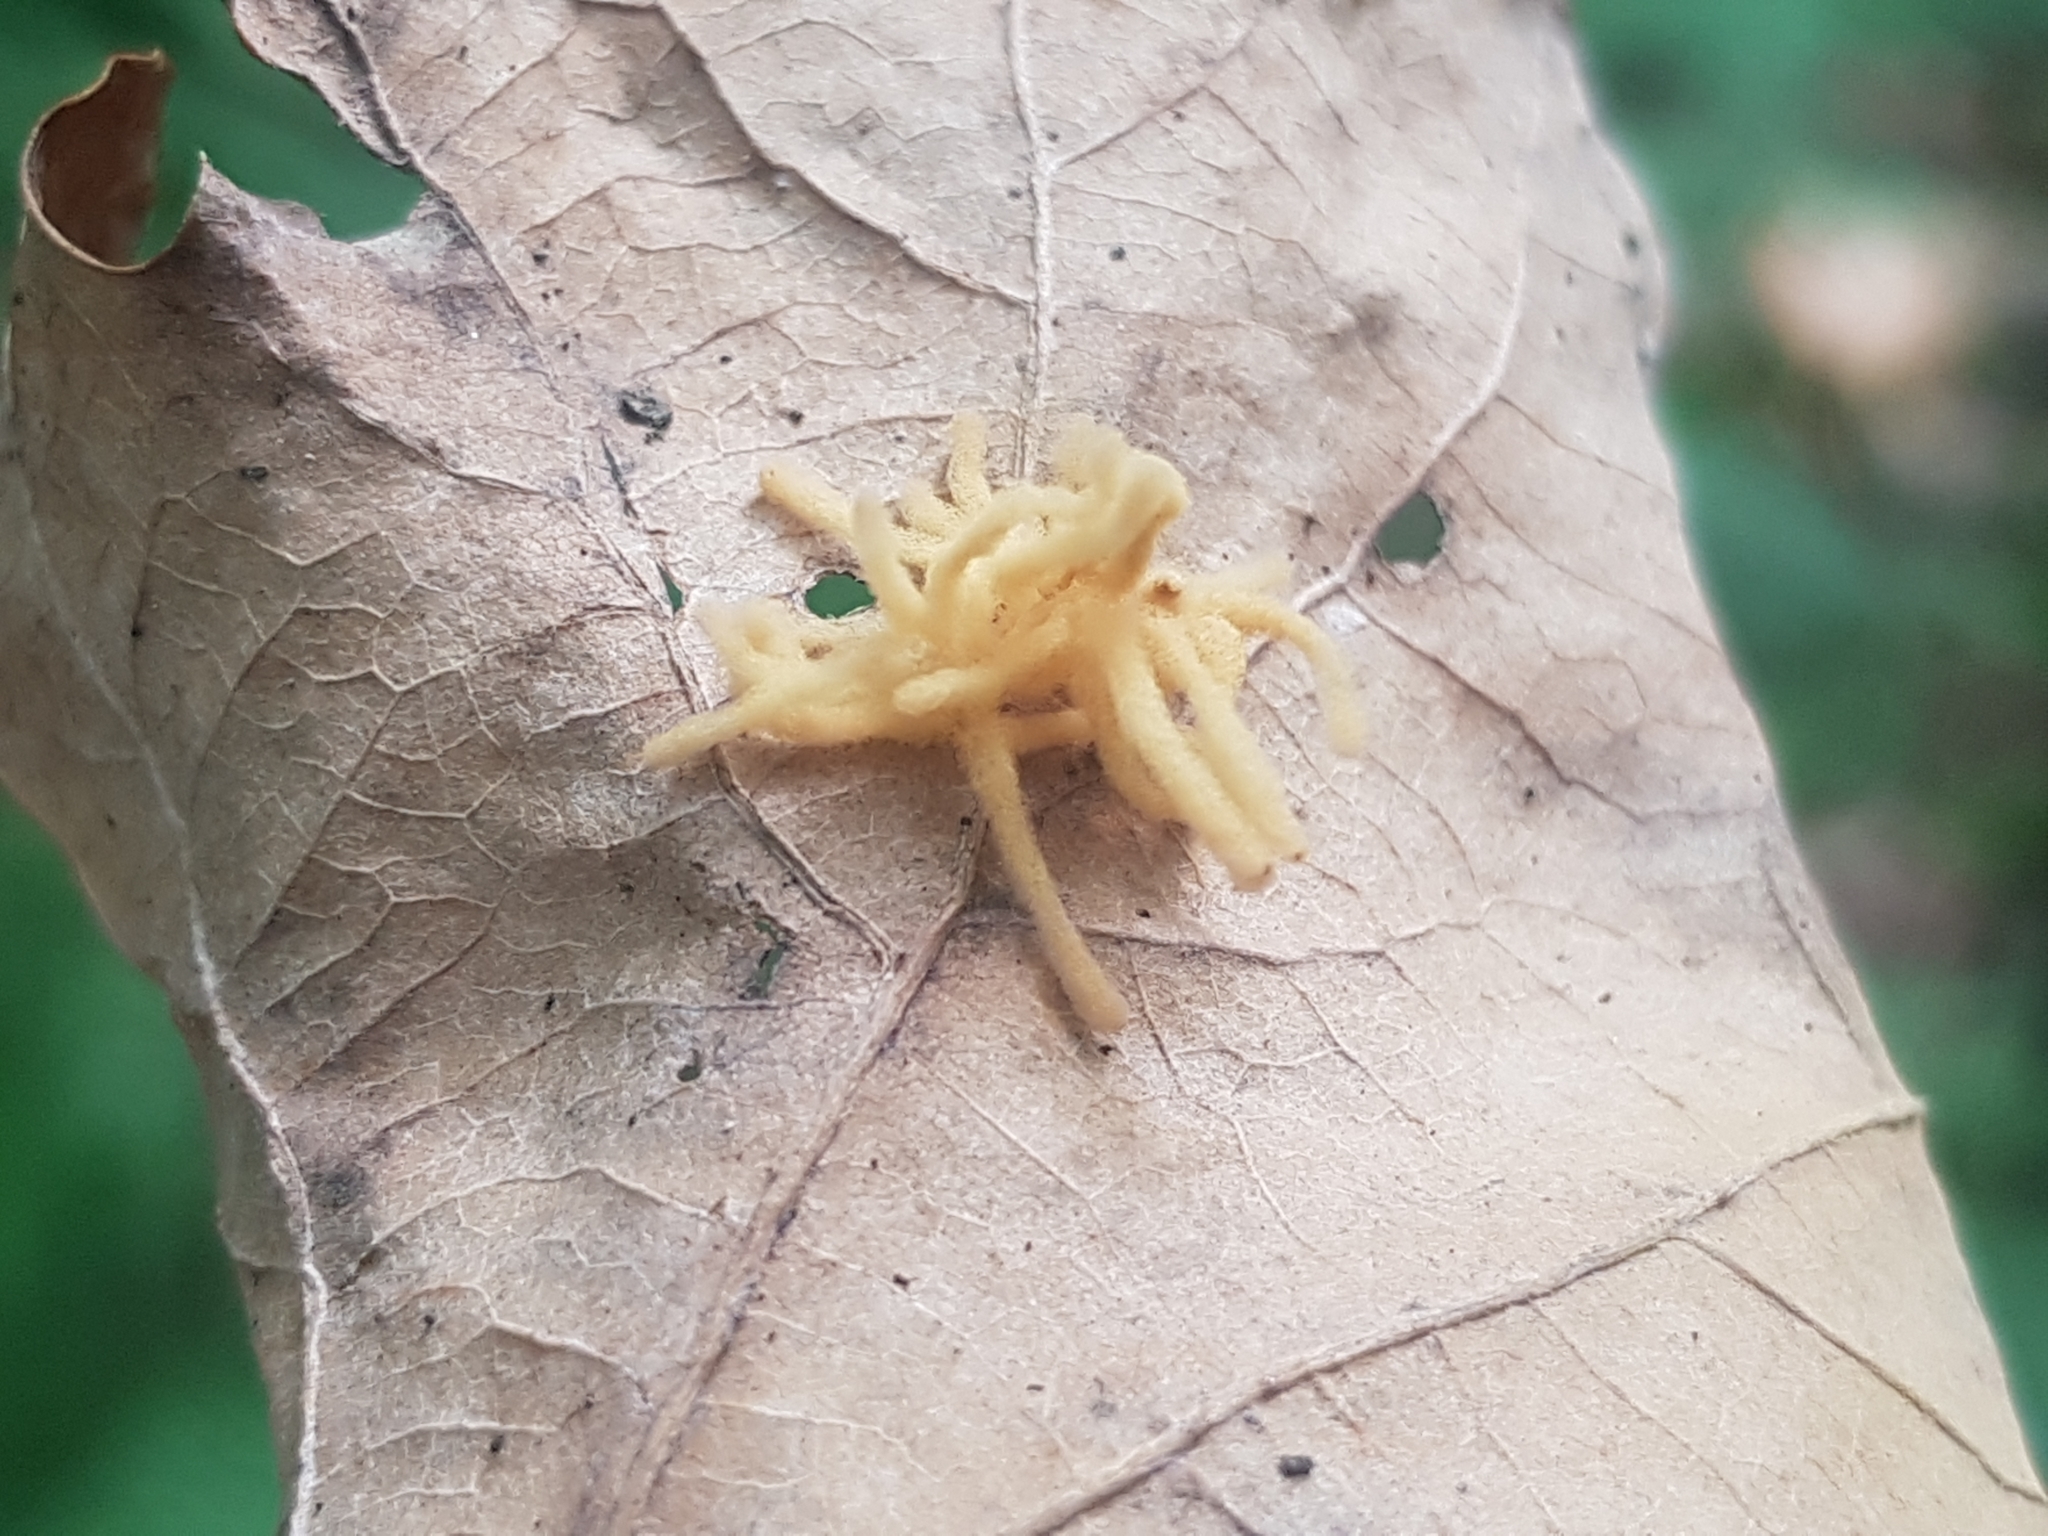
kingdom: Protozoa
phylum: Mycetozoa
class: Myxomycetes
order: Trichiales
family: Arcyriaceae
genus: Arcyria
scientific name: Arcyria obvelata
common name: Yellow carnival candy slime
